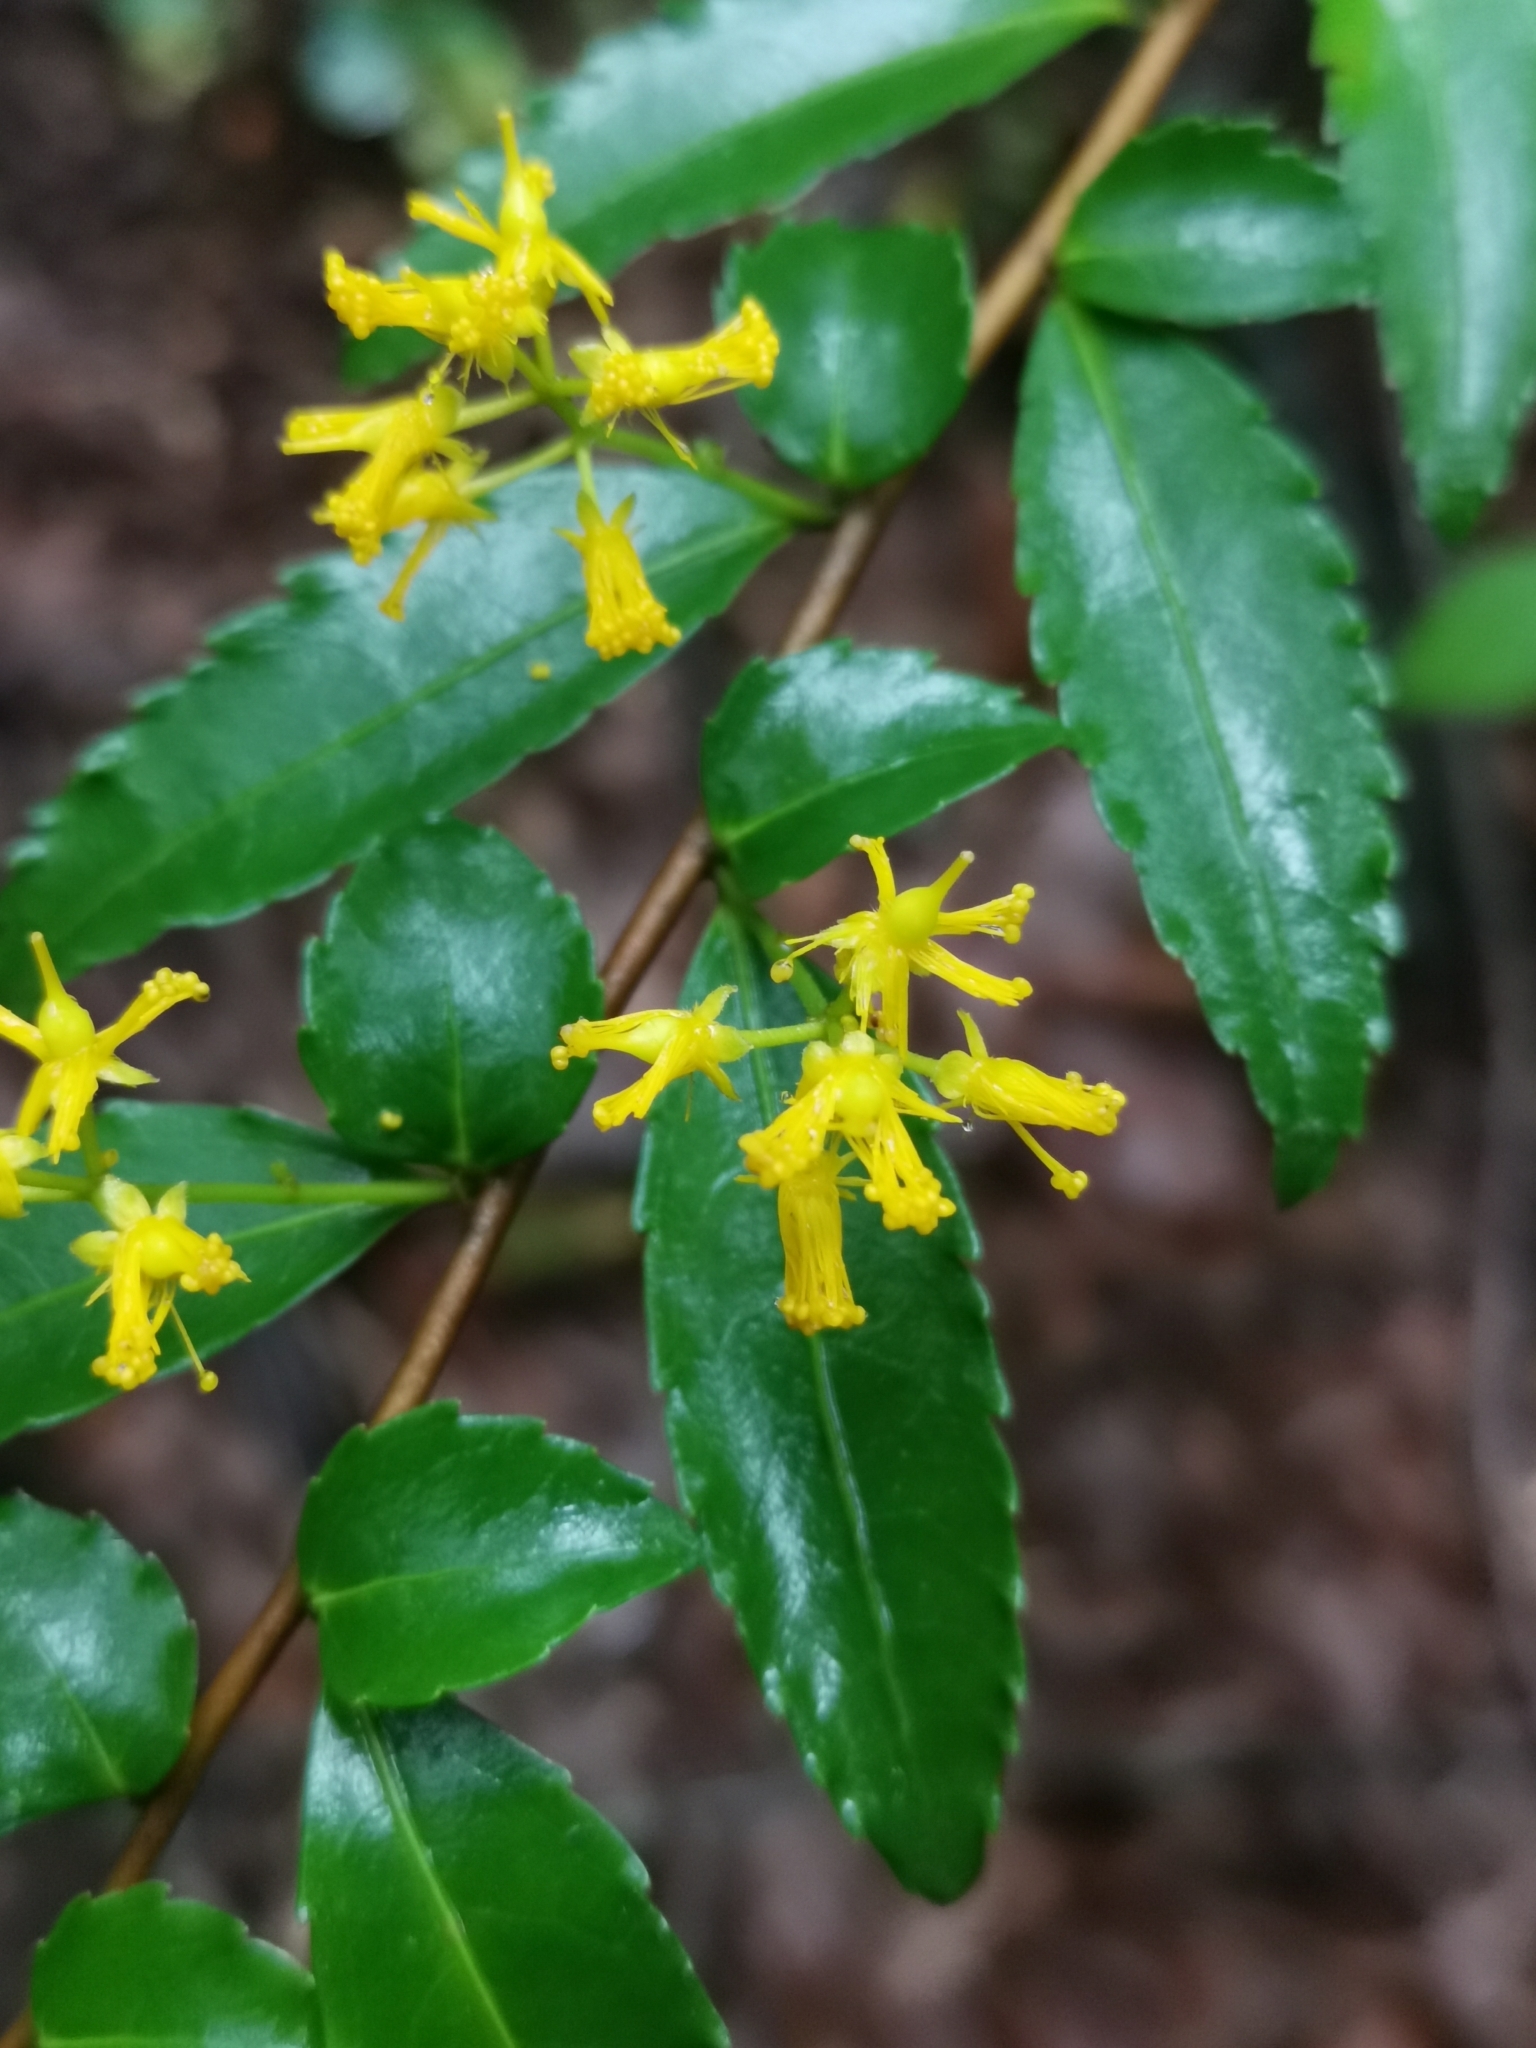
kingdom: Plantae
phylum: Tracheophyta
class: Magnoliopsida
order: Malpighiales
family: Salicaceae
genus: Azara
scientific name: Azara lanceolata
